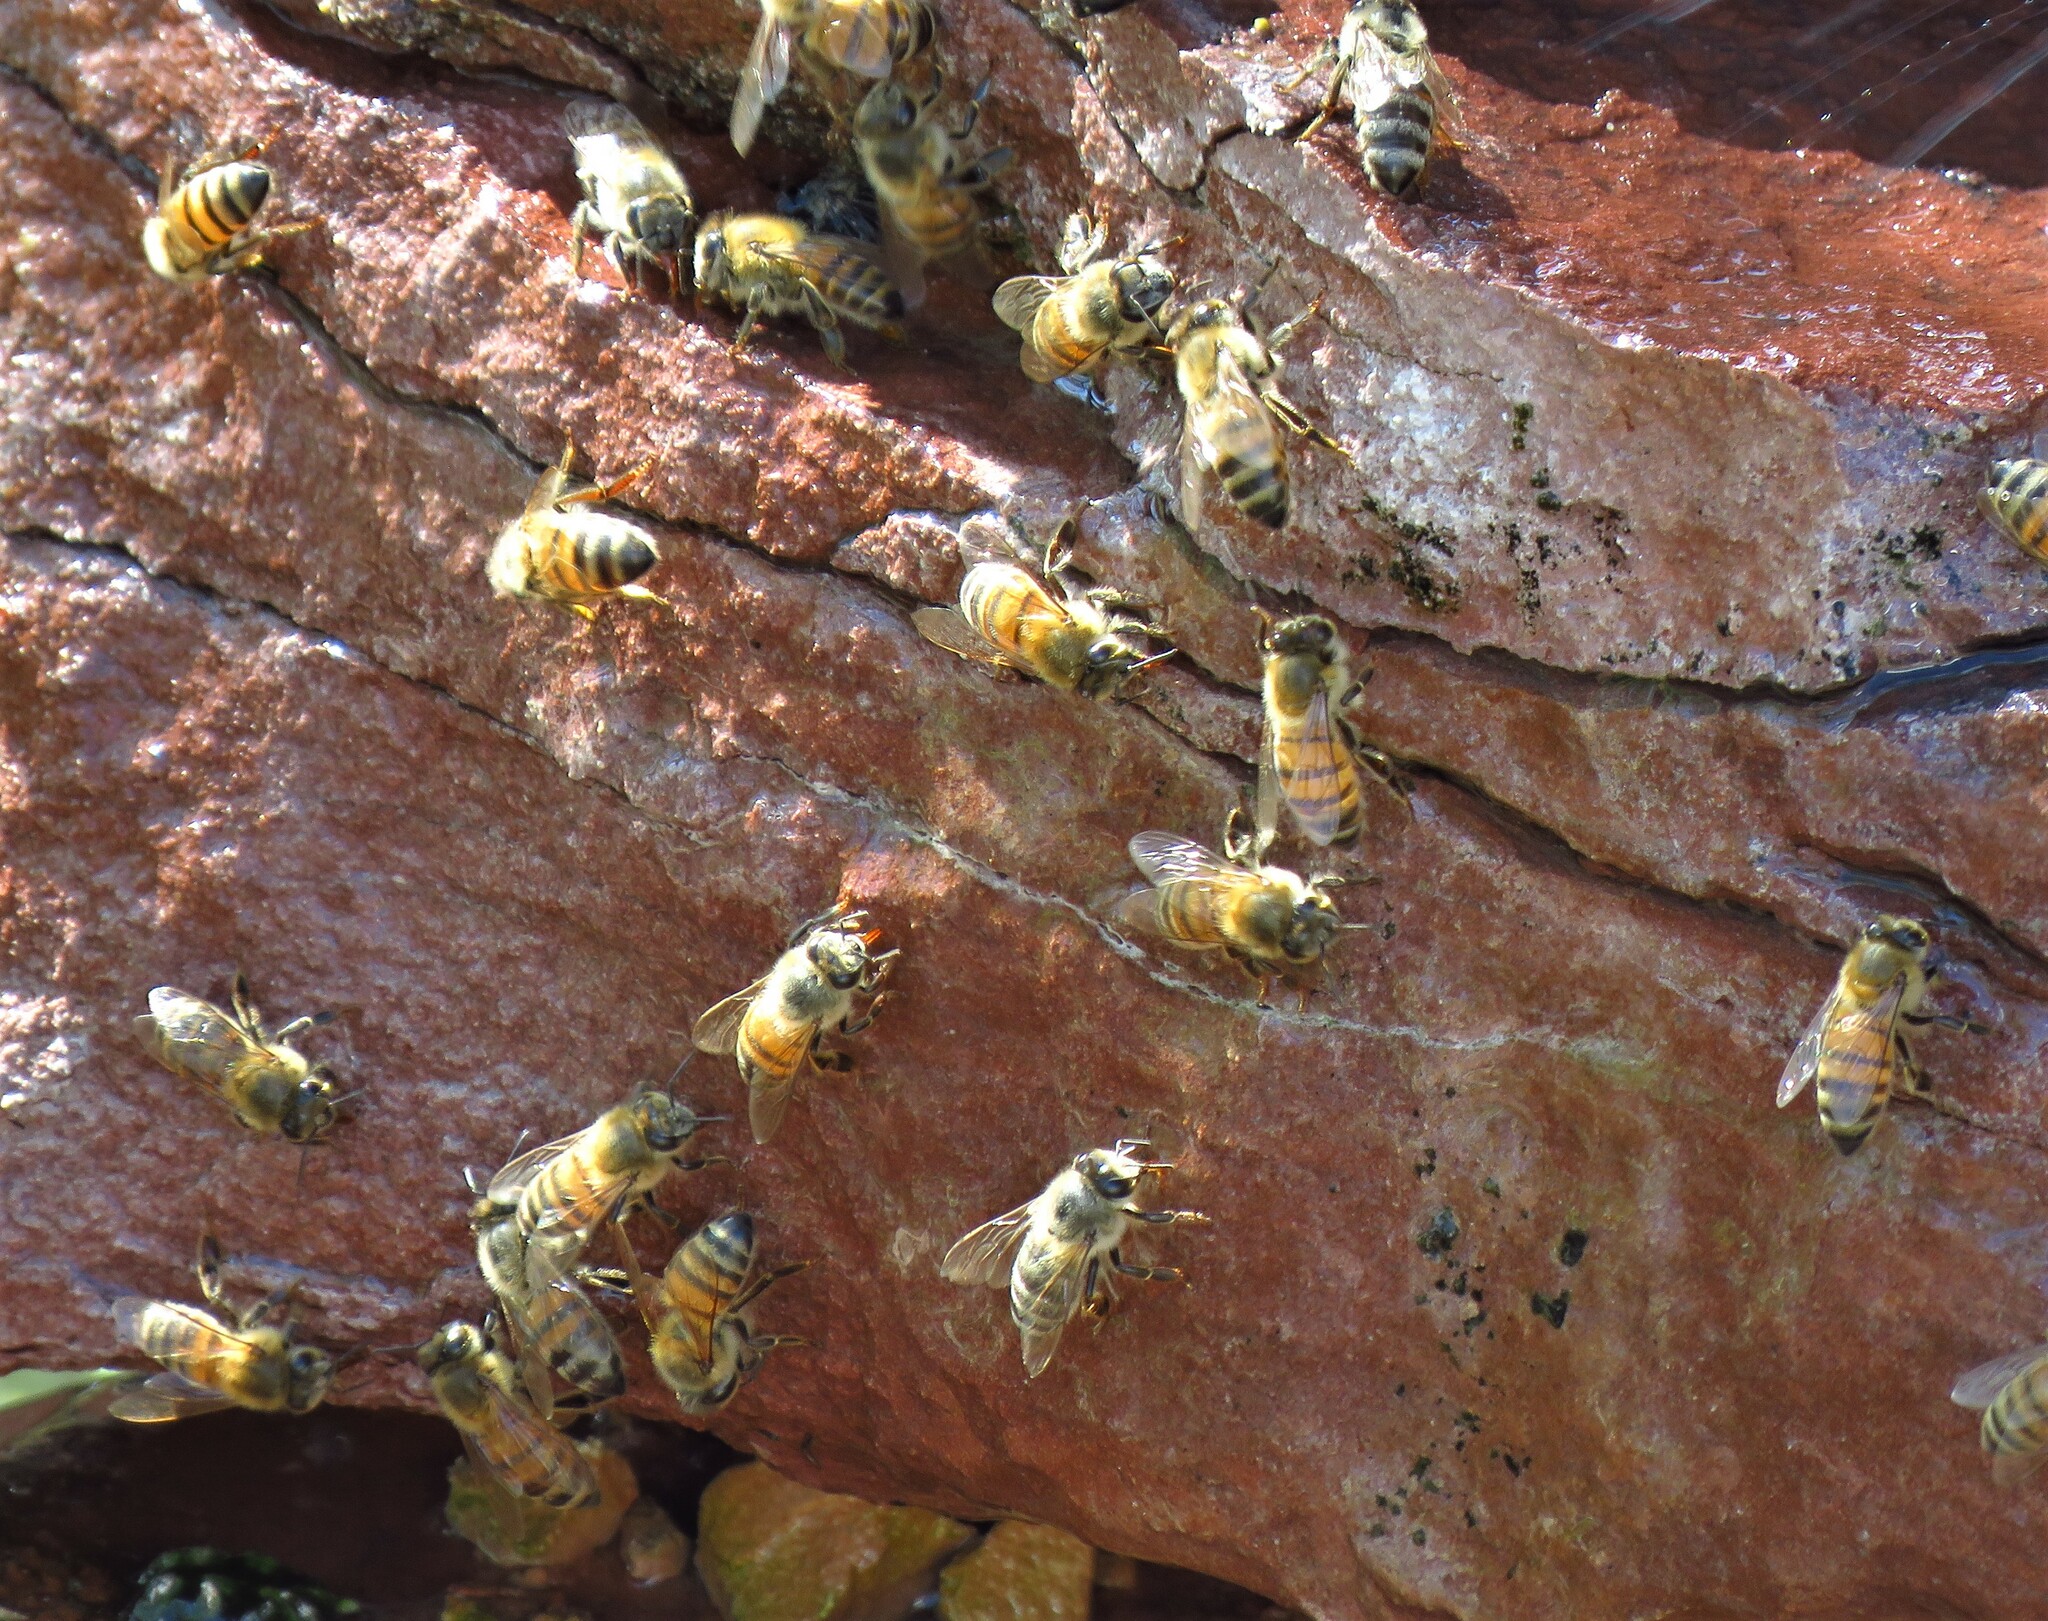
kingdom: Animalia
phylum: Arthropoda
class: Insecta
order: Hymenoptera
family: Apidae
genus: Apis
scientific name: Apis mellifera
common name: Honey bee
